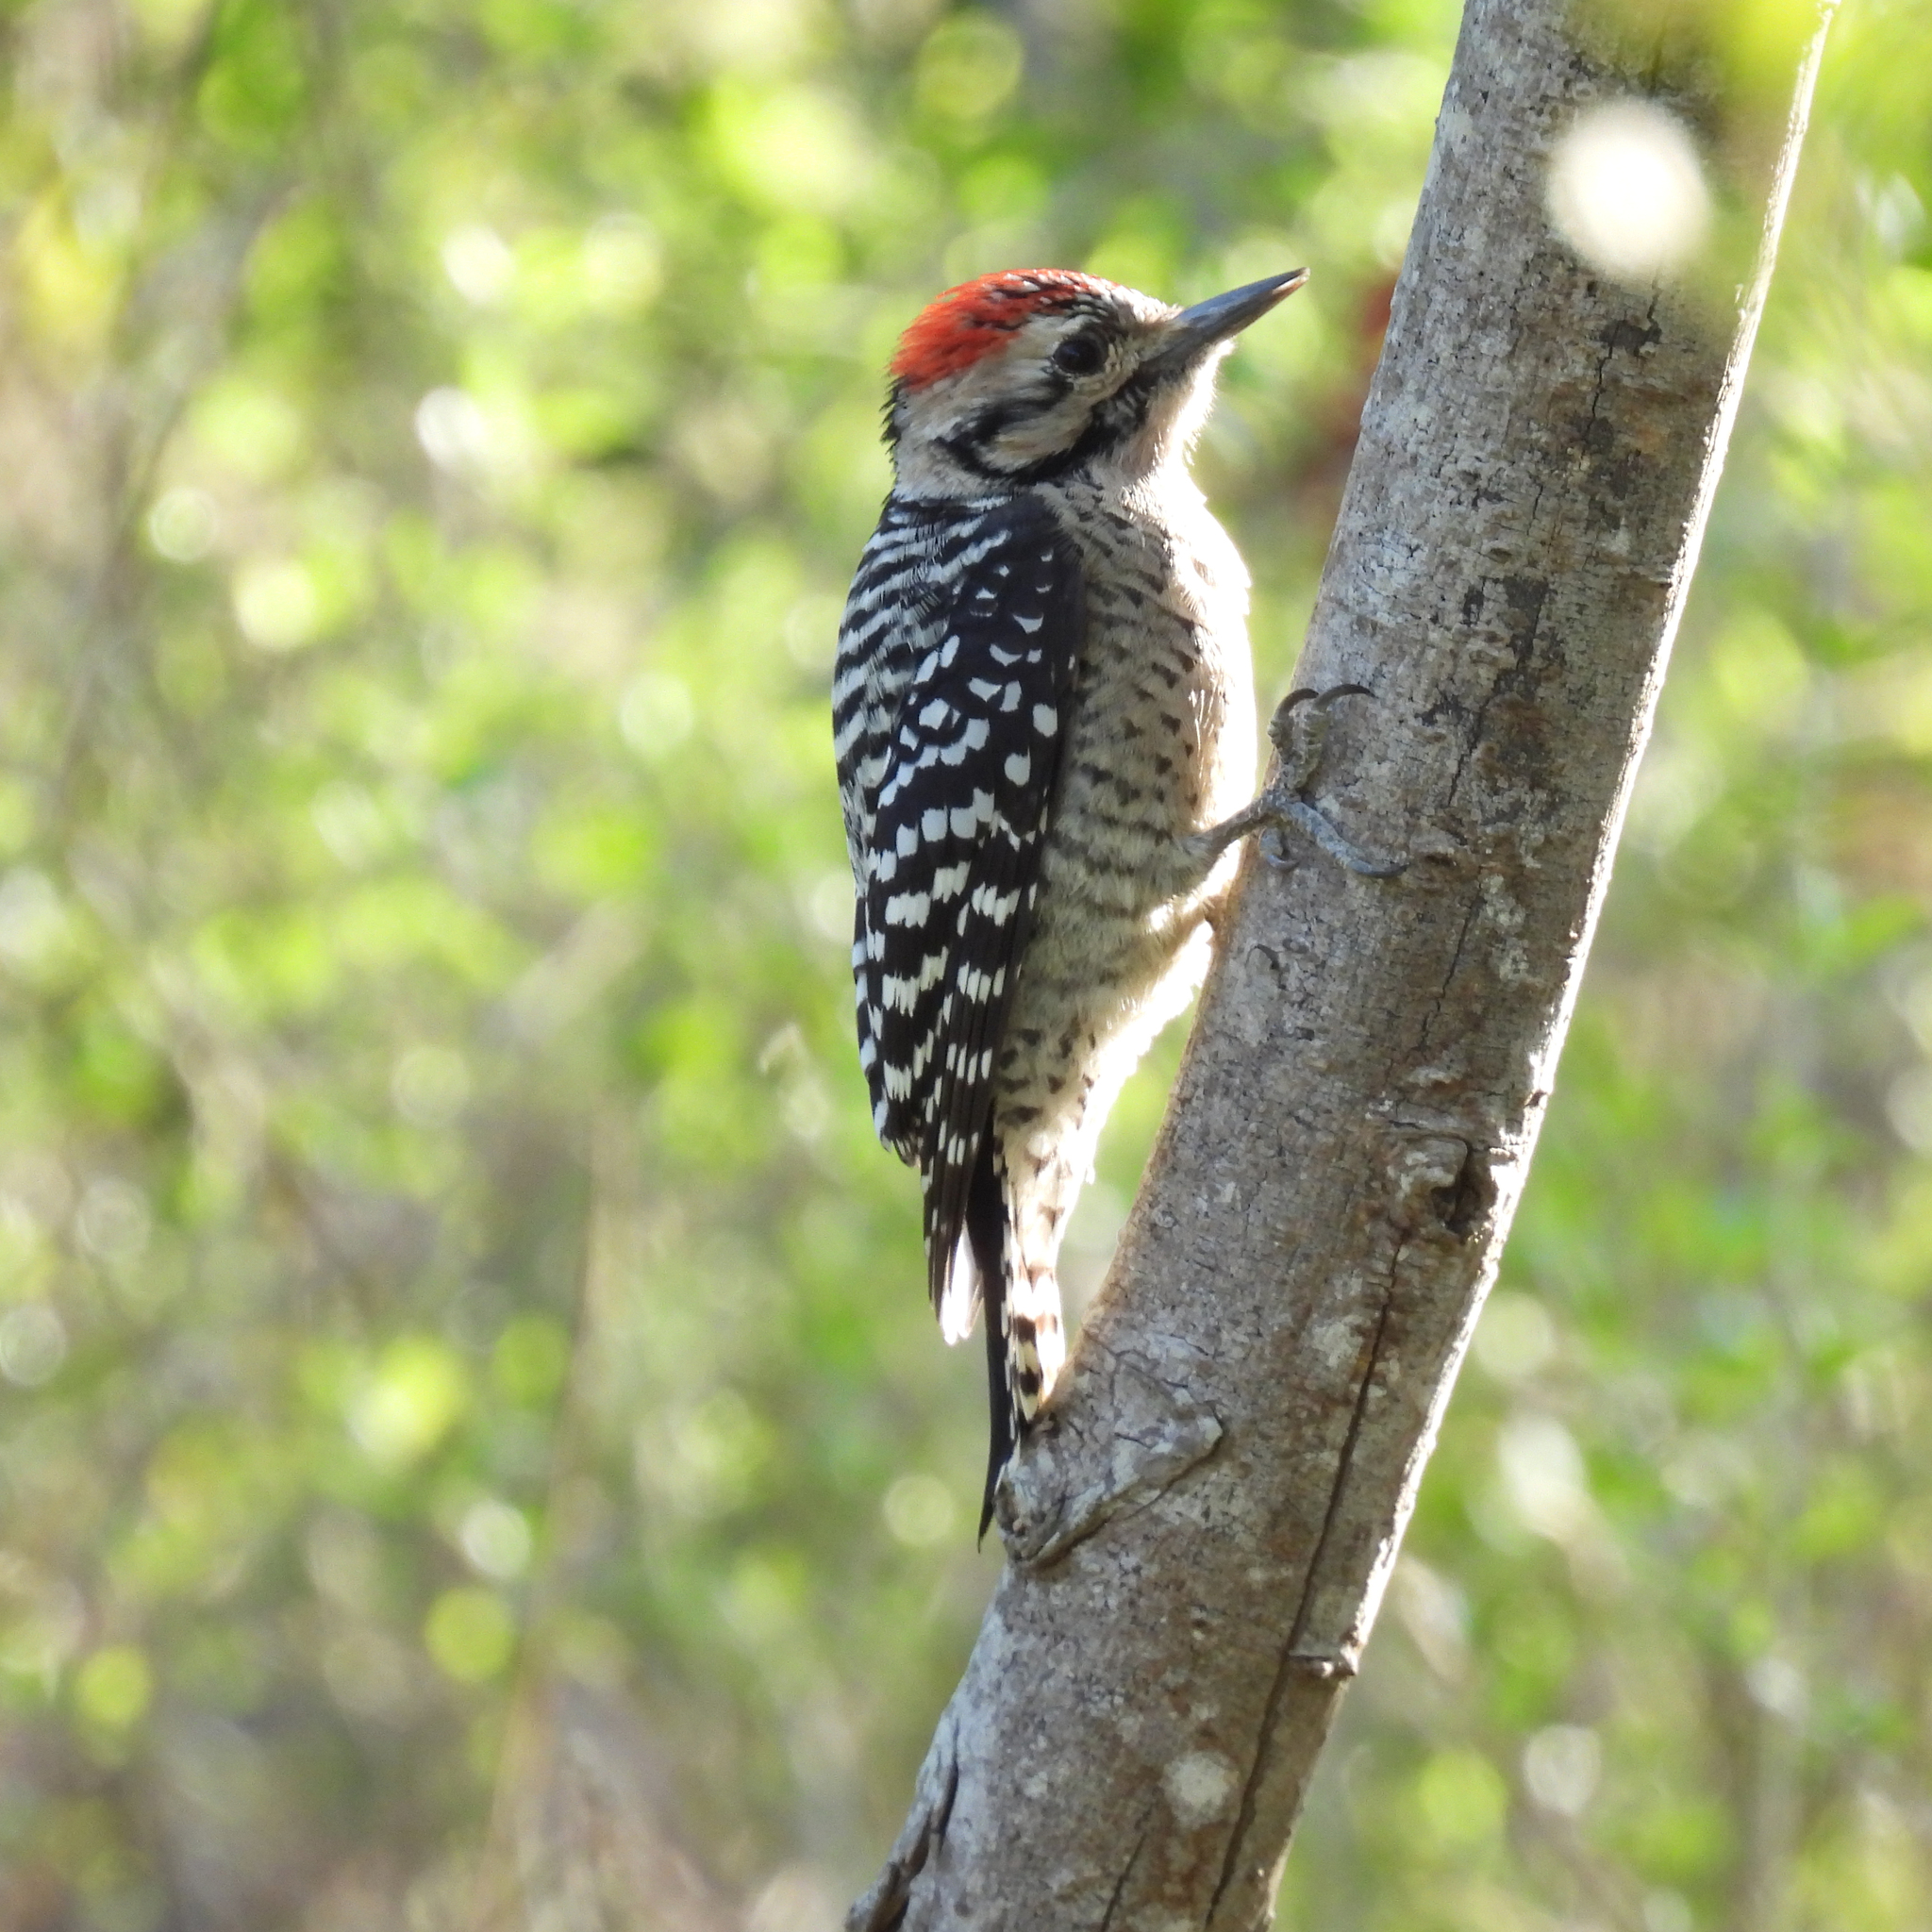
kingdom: Animalia
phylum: Chordata
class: Aves
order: Piciformes
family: Picidae
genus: Dryobates
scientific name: Dryobates scalaris
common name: Ladder-backed woodpecker
